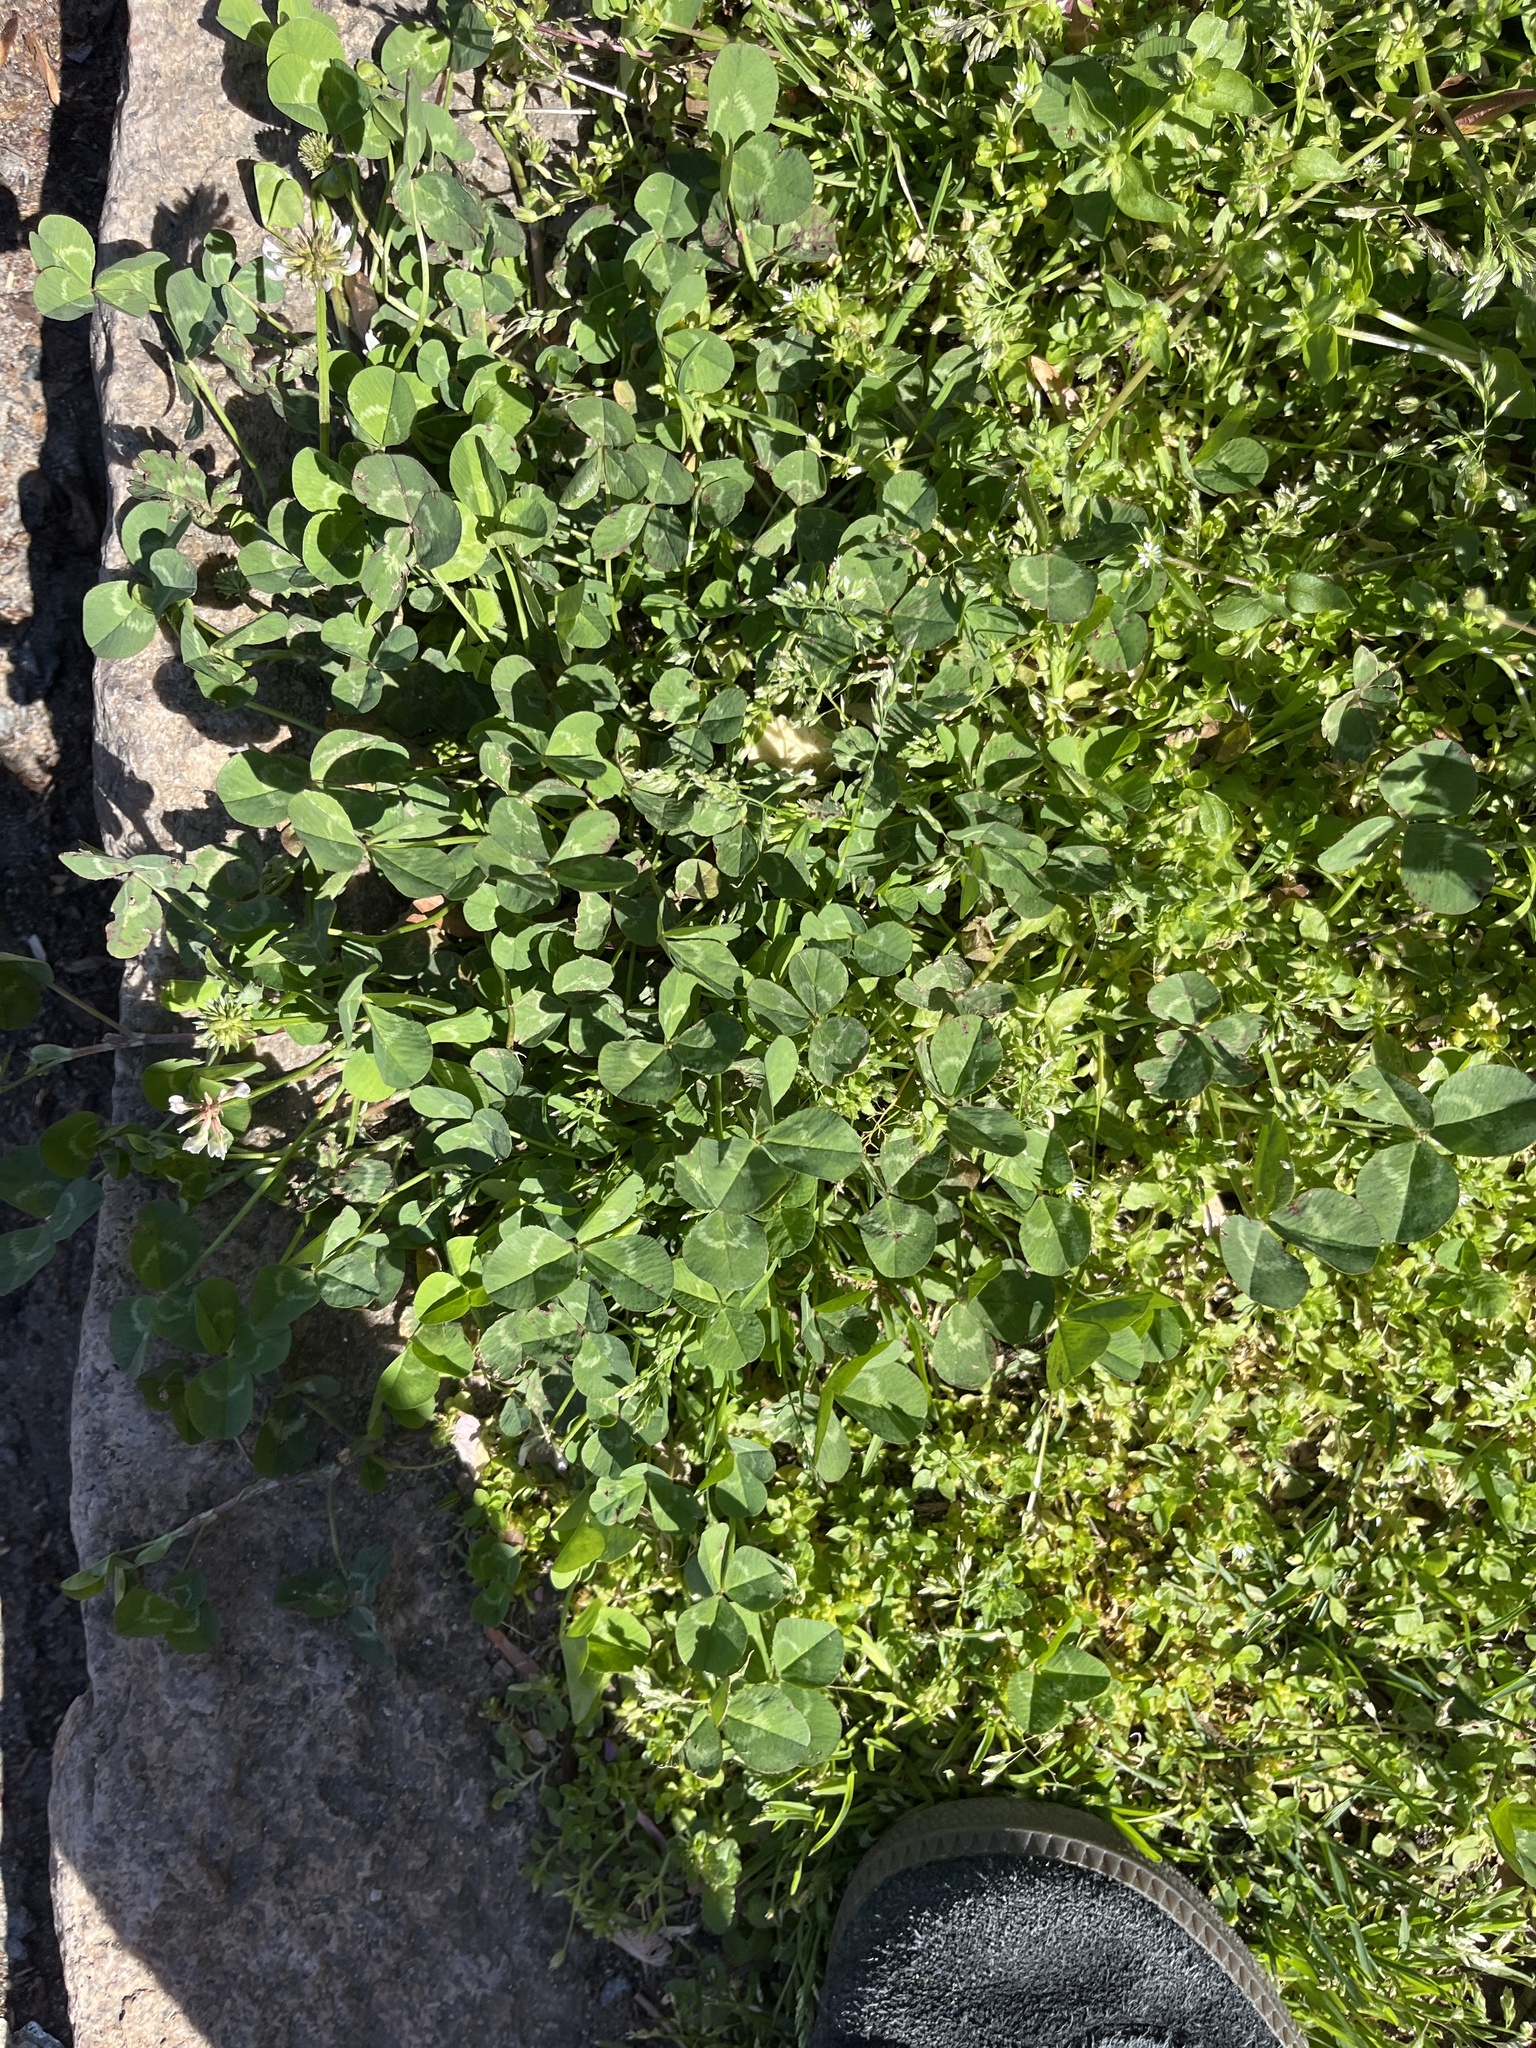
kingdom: Plantae
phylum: Tracheophyta
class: Magnoliopsida
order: Fabales
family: Fabaceae
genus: Trifolium
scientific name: Trifolium repens
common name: White clover
